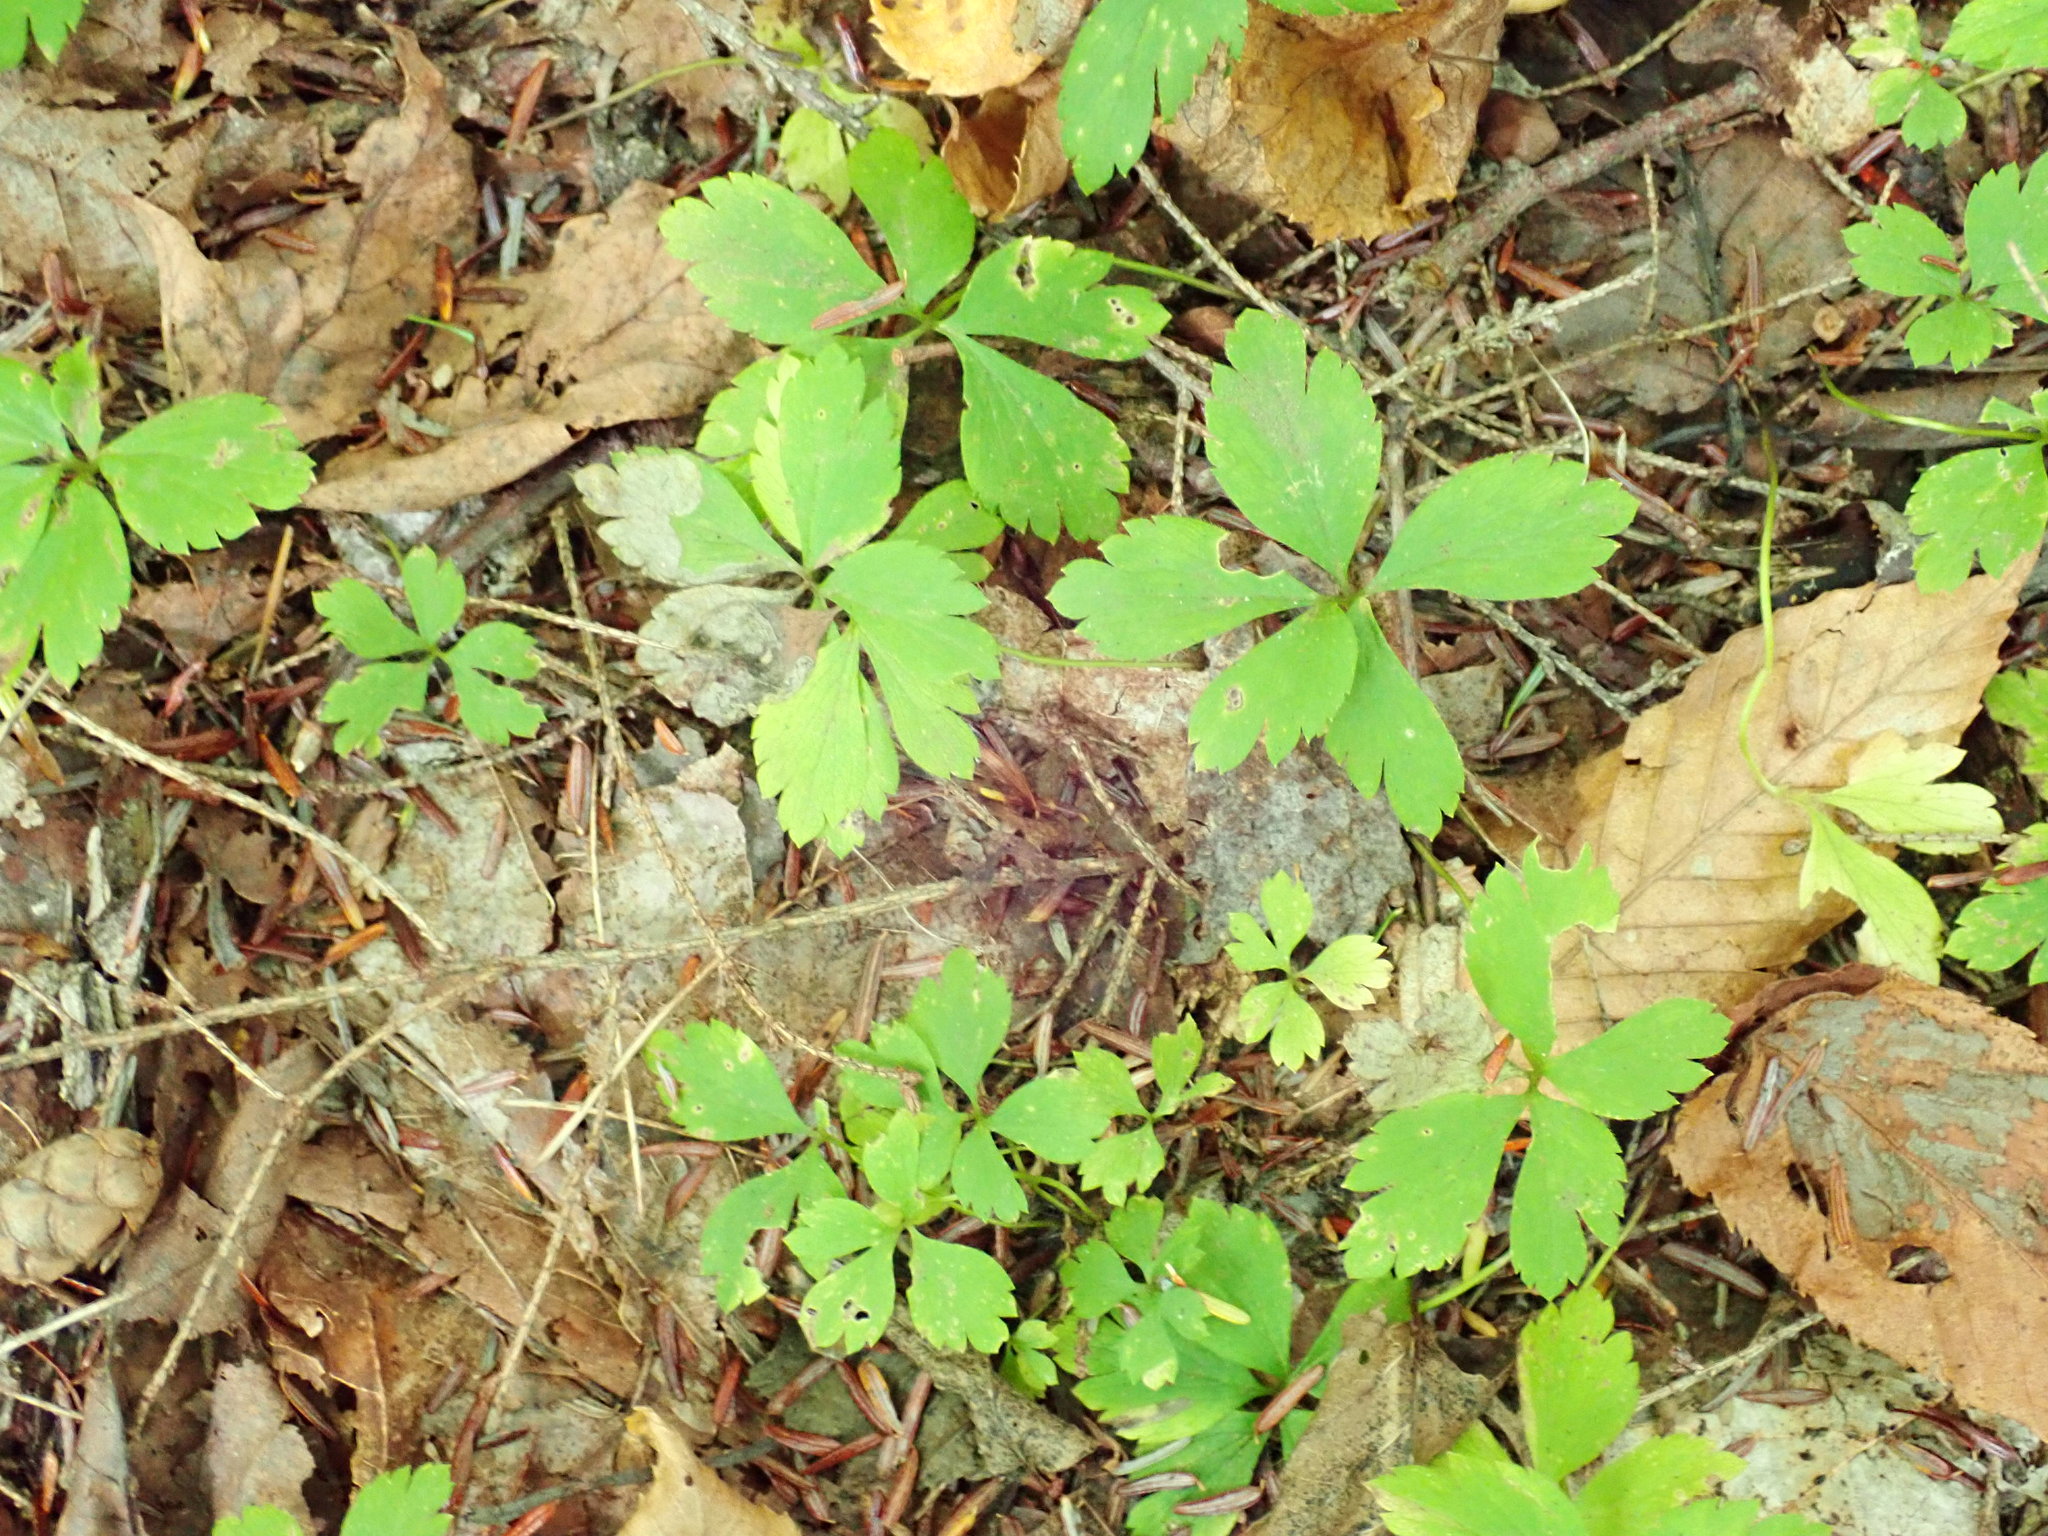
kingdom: Plantae
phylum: Tracheophyta
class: Magnoliopsida
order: Ranunculales
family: Ranunculaceae
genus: Anemone
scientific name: Anemone quinquefolia
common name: Wood anemone
